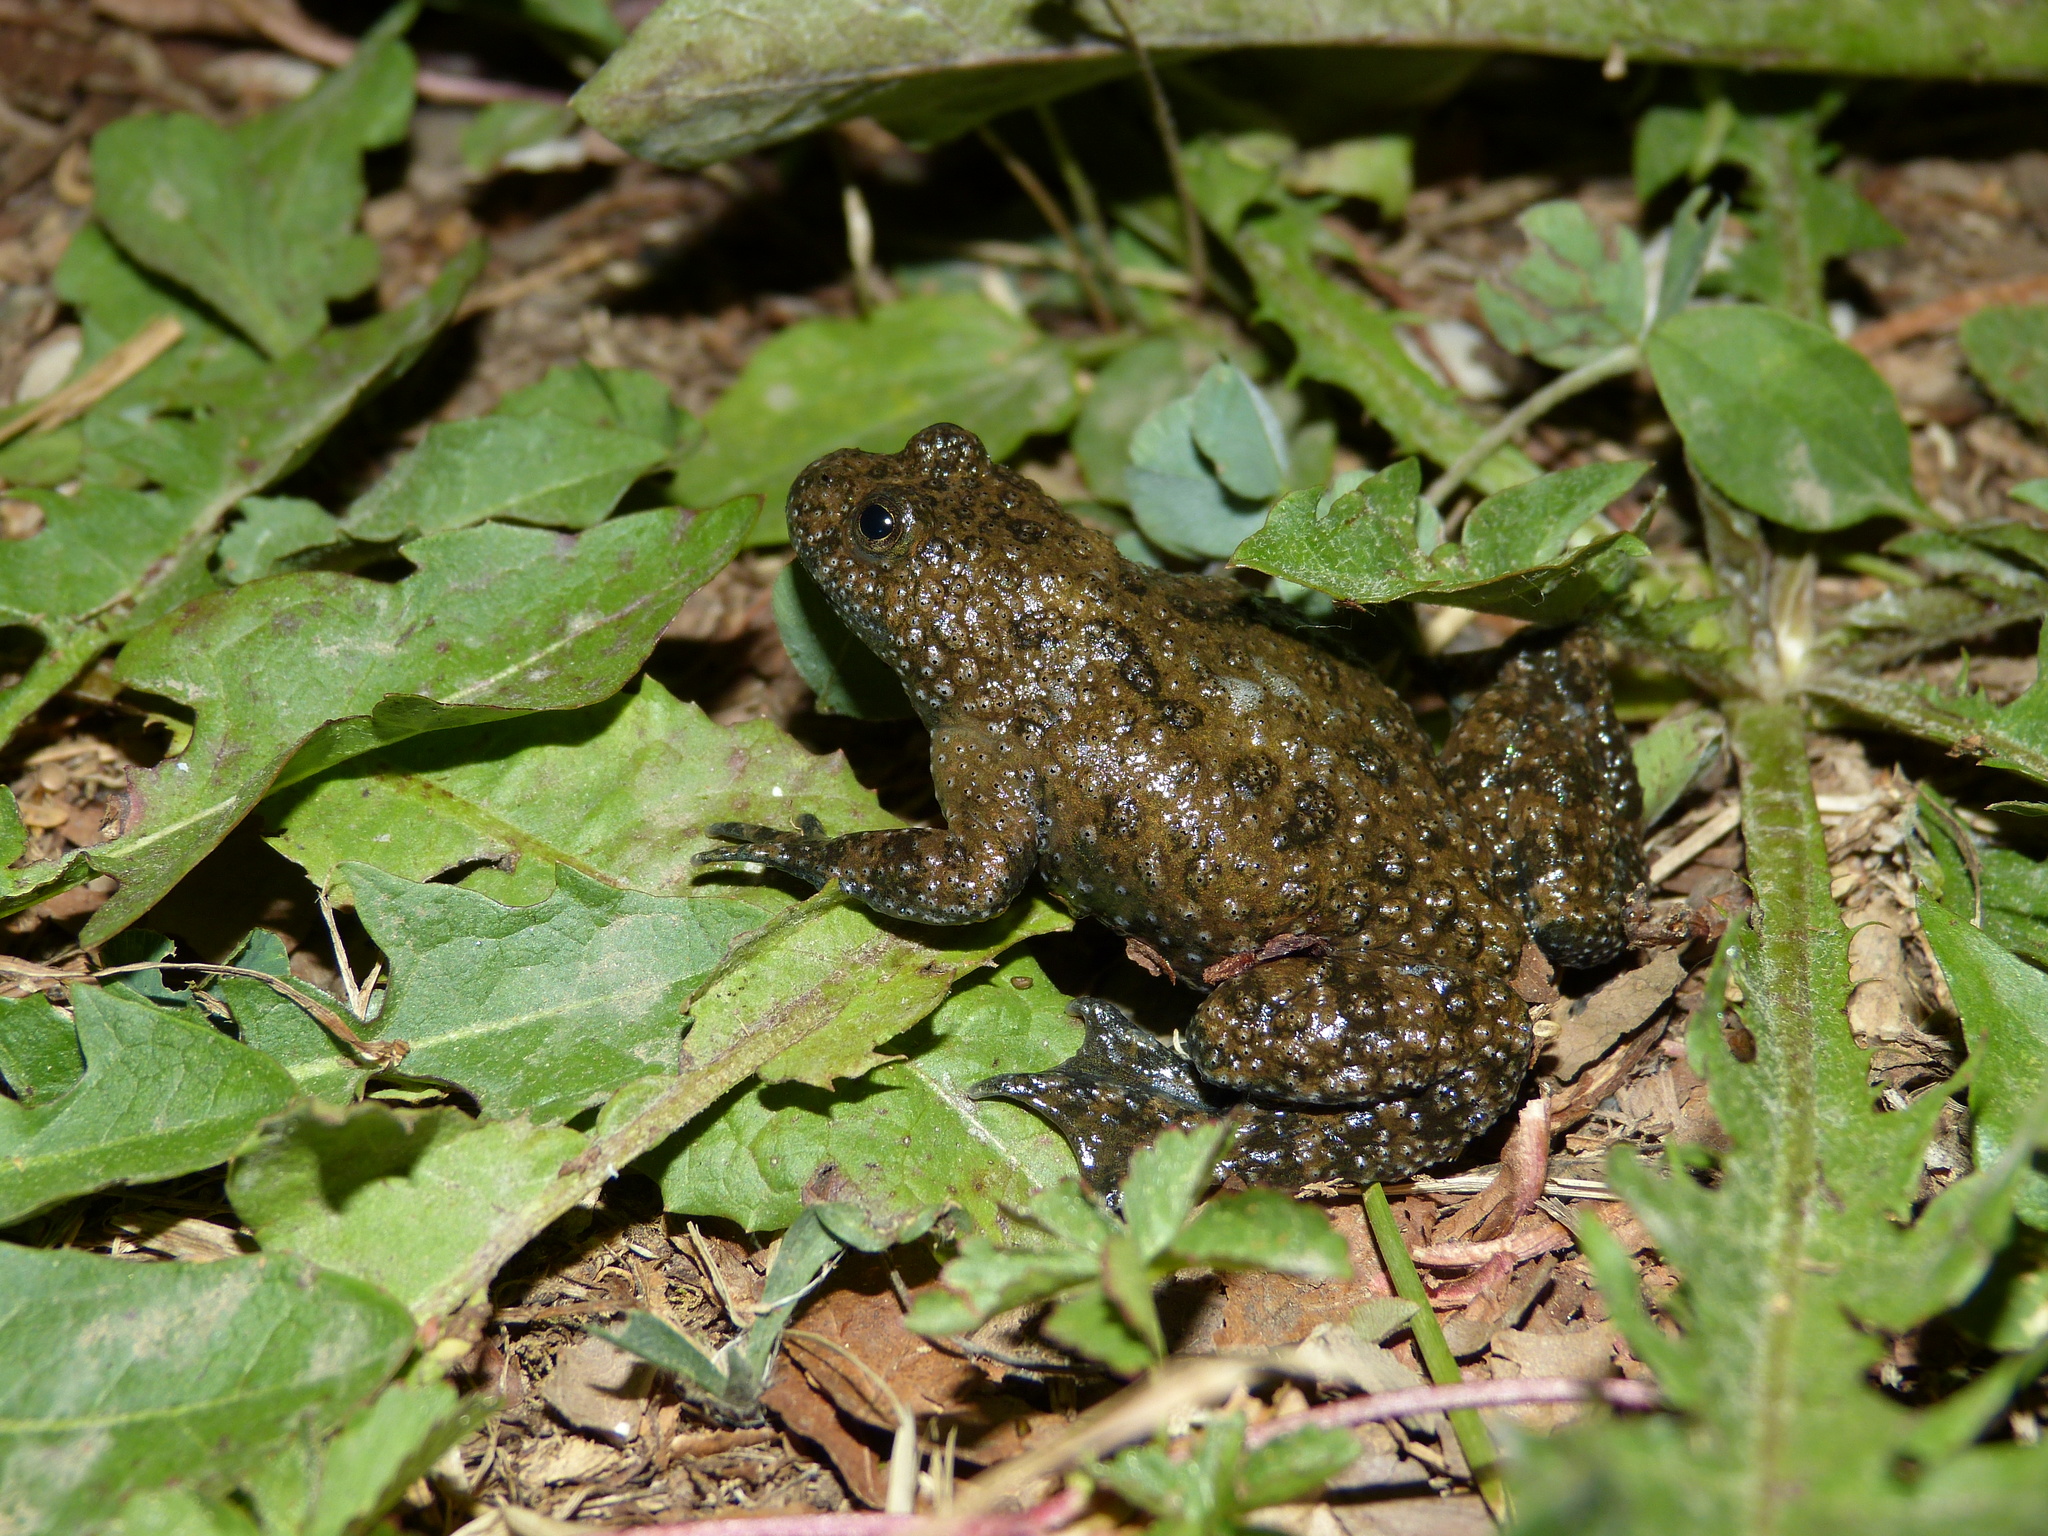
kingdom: Animalia
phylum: Chordata
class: Amphibia
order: Anura
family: Bombinatoridae
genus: Bombina
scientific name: Bombina variegata
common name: Yellow-bellied toad
